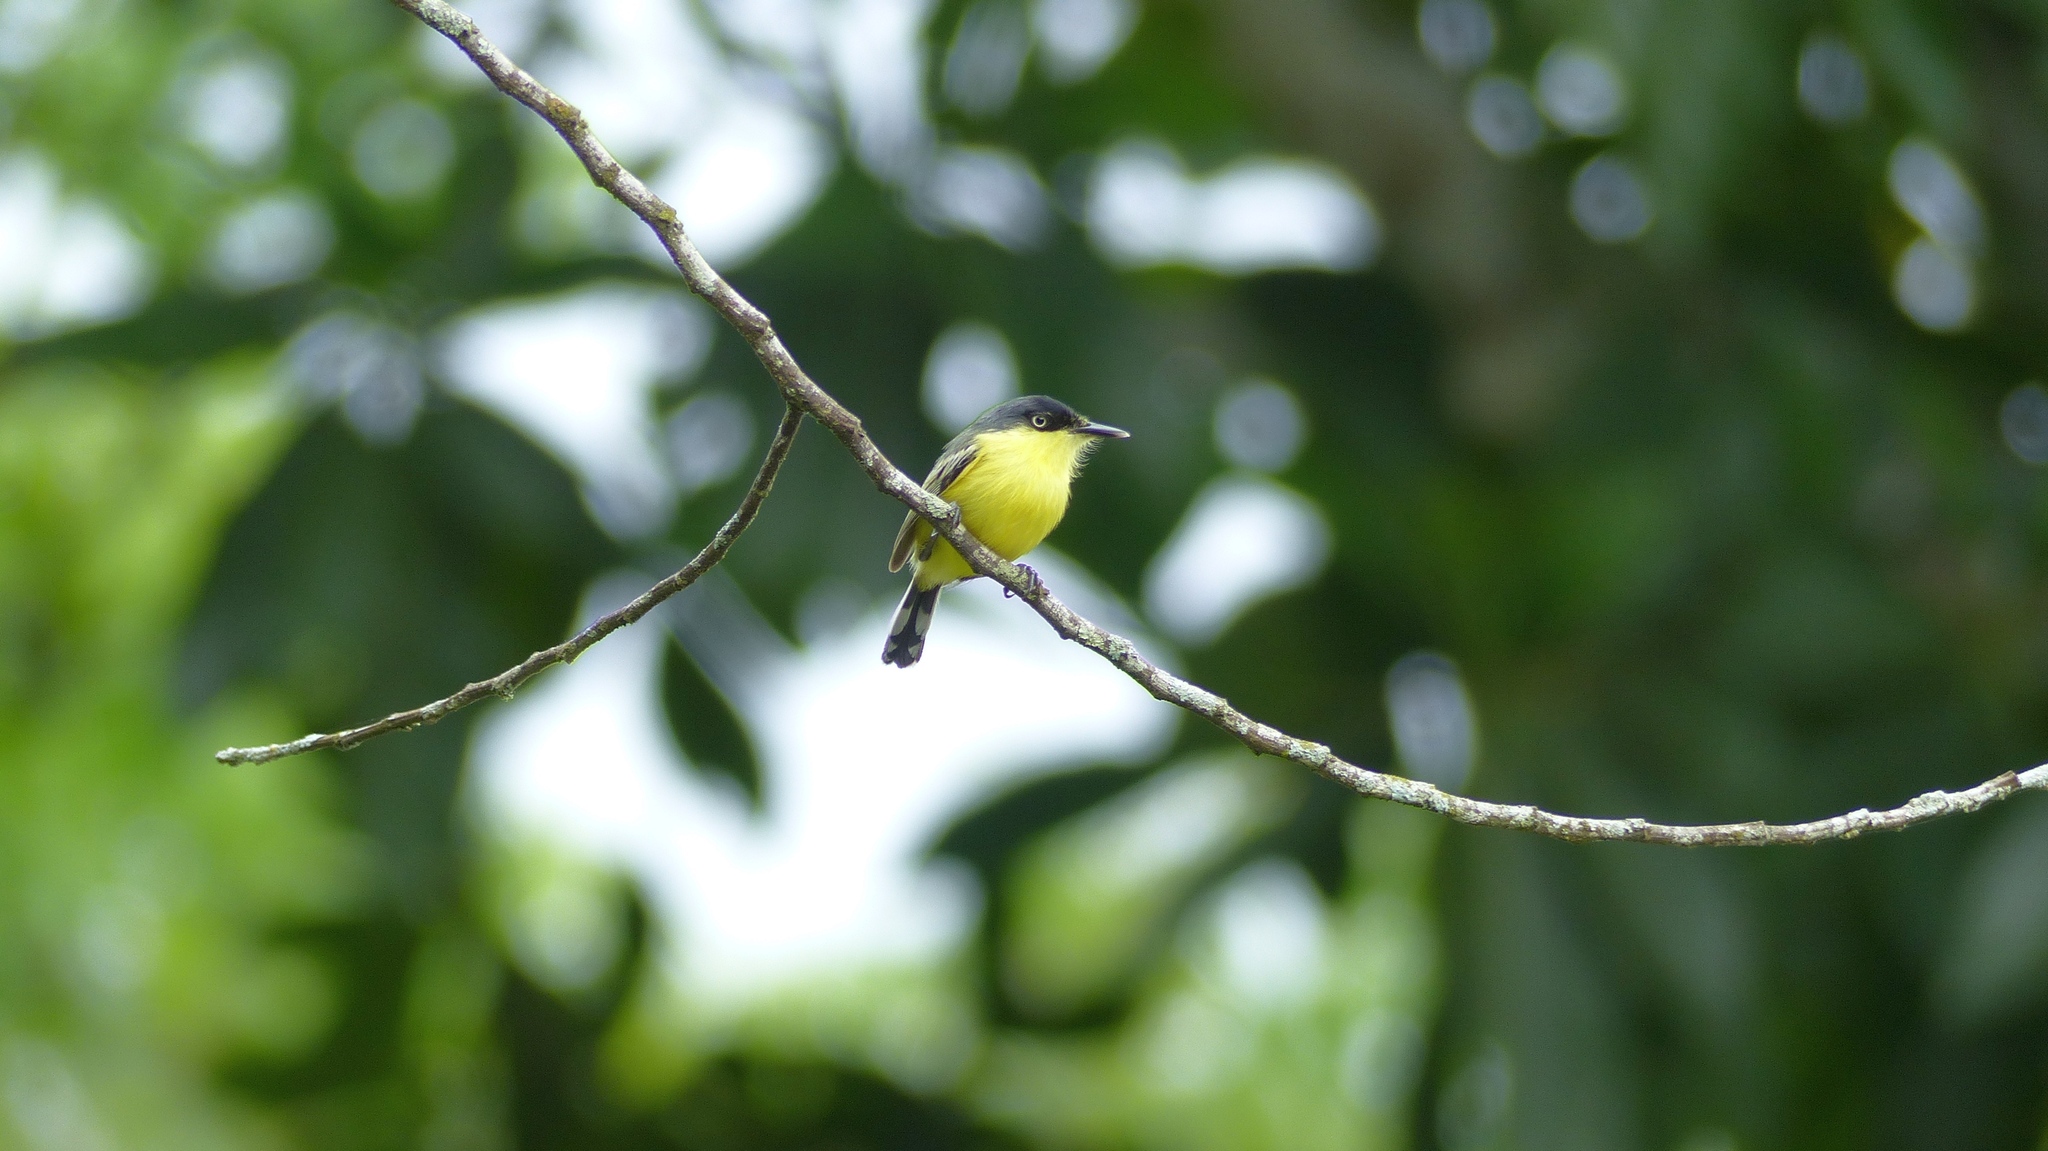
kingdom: Animalia
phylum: Chordata
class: Aves
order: Passeriformes
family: Tyrannidae
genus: Todirostrum
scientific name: Todirostrum cinereum
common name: Common tody-flycatcher
